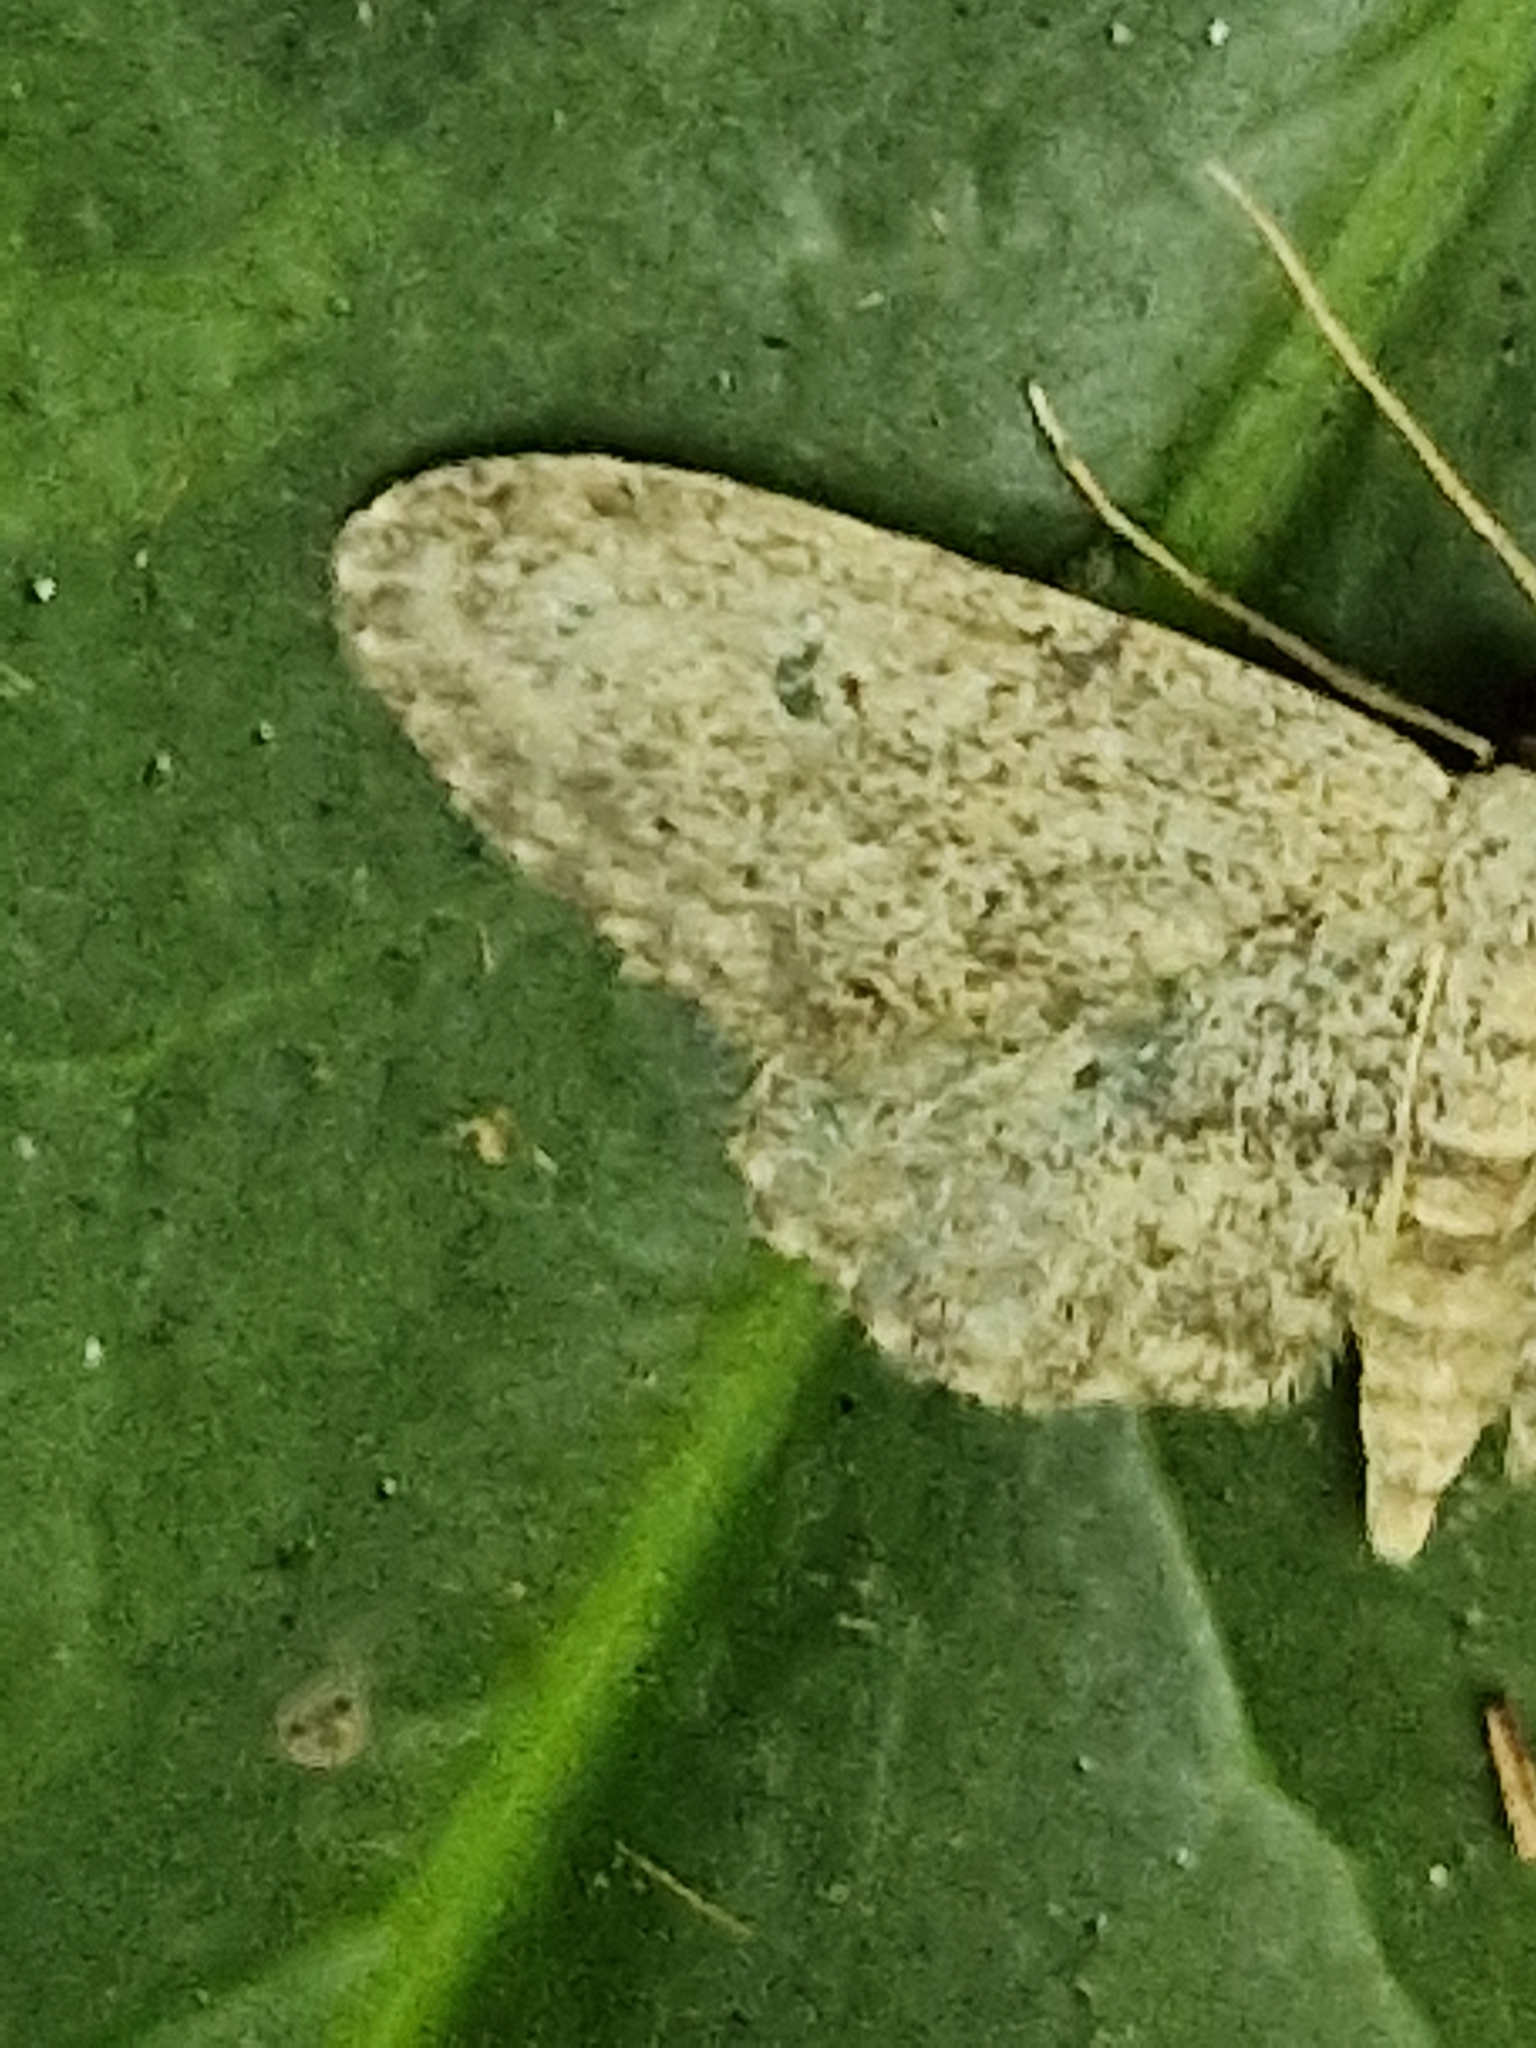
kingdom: Animalia
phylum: Arthropoda
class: Insecta
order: Lepidoptera
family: Geometridae
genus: Idaea
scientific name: Idaea seriata
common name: Small dusty wave
